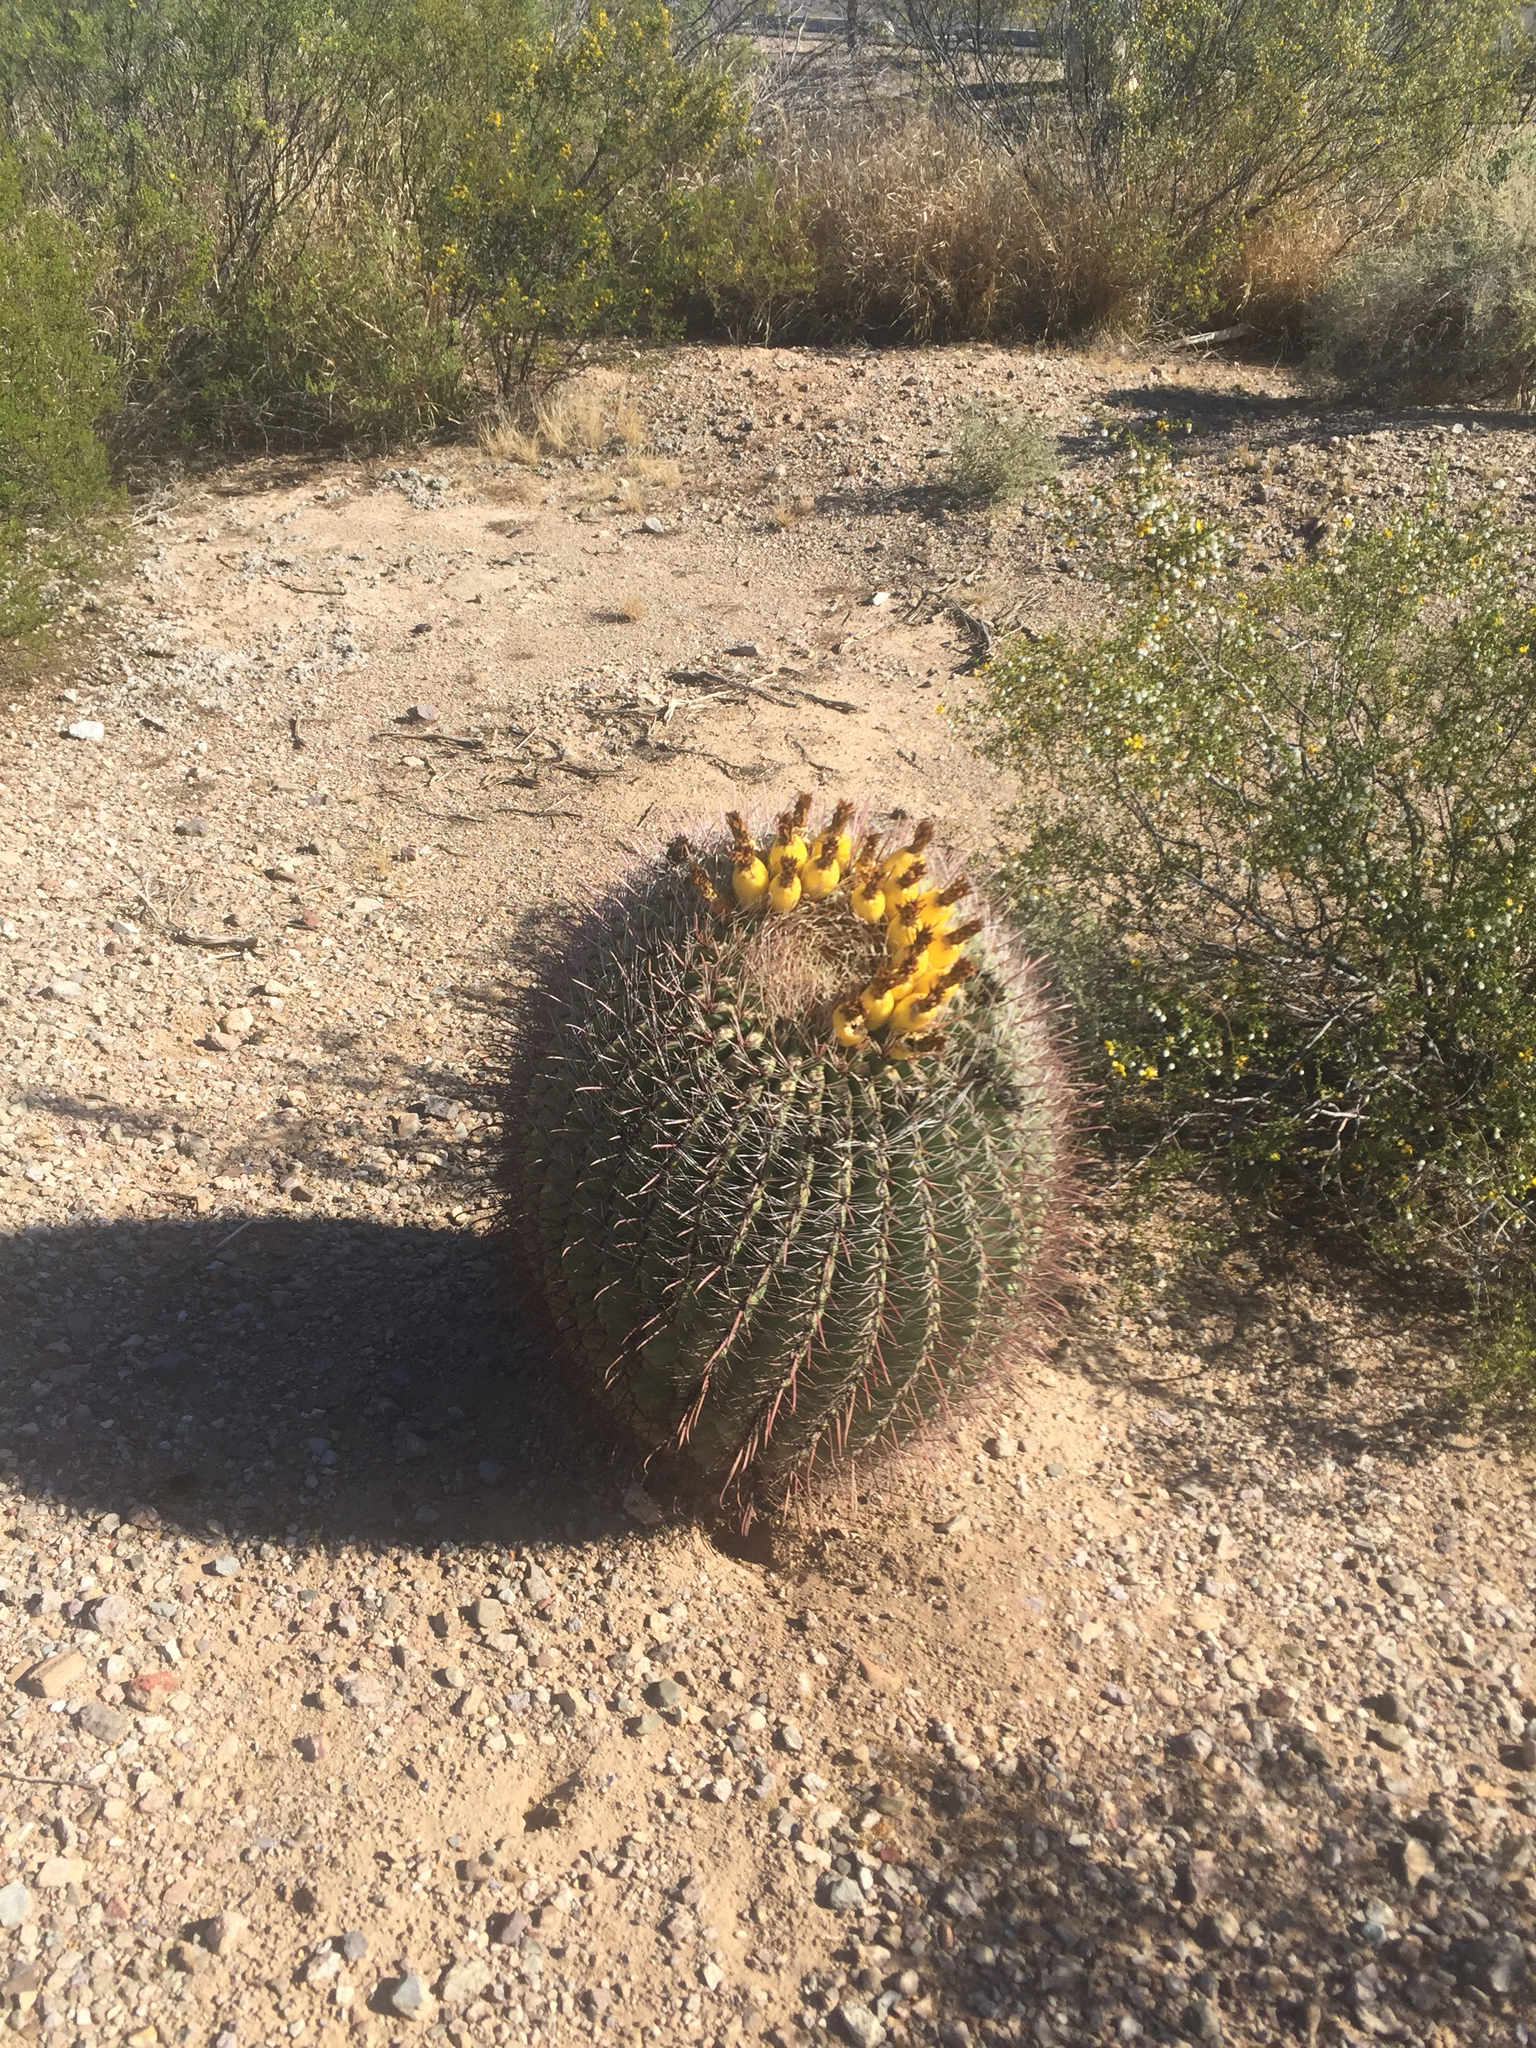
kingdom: Plantae
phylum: Tracheophyta
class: Magnoliopsida
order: Caryophyllales
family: Cactaceae
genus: Ferocactus
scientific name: Ferocactus wislizeni
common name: Candy barrel cactus
